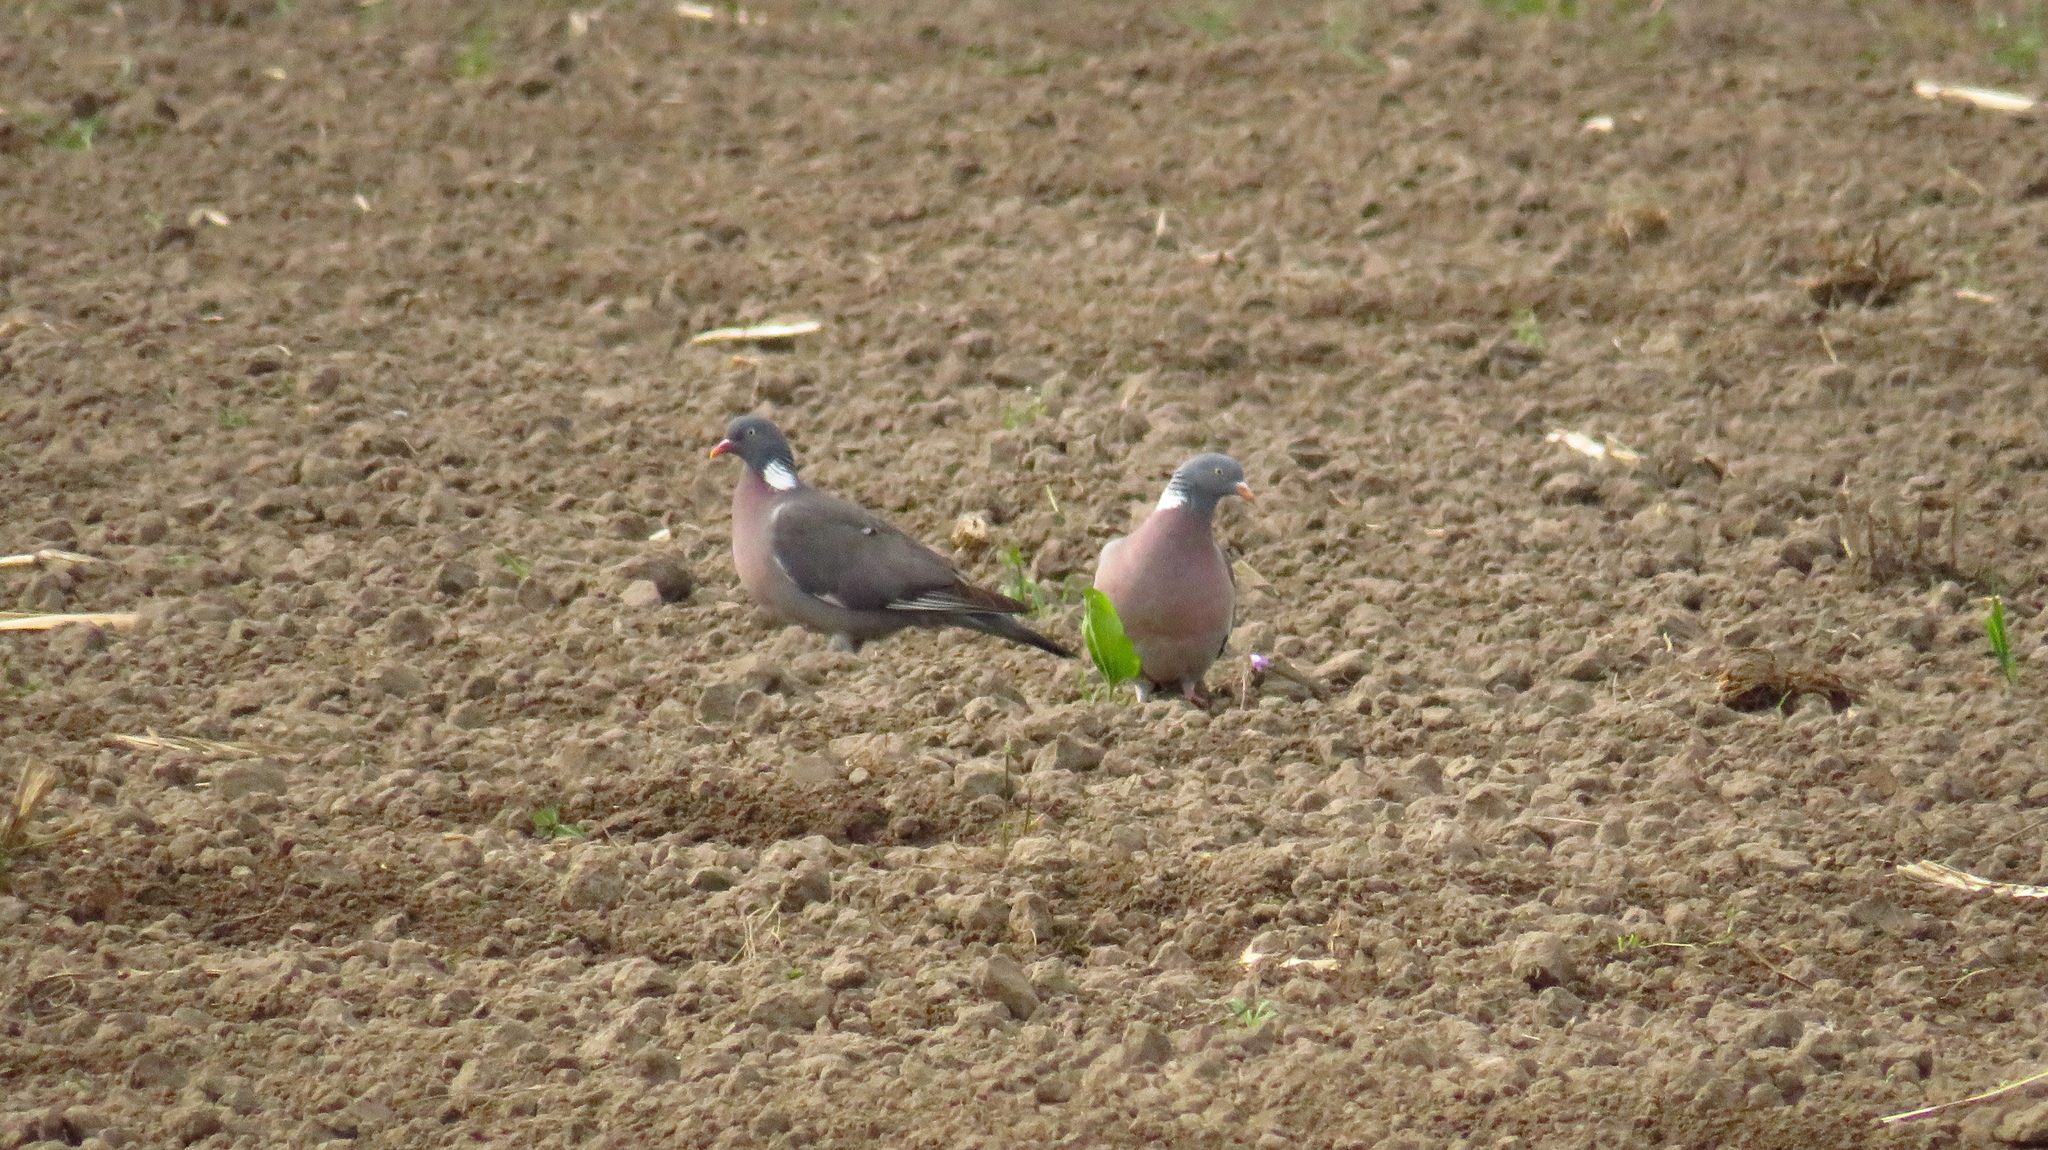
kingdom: Animalia
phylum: Chordata
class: Aves
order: Columbiformes
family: Columbidae
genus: Columba
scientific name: Columba palumbus
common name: Common wood pigeon
